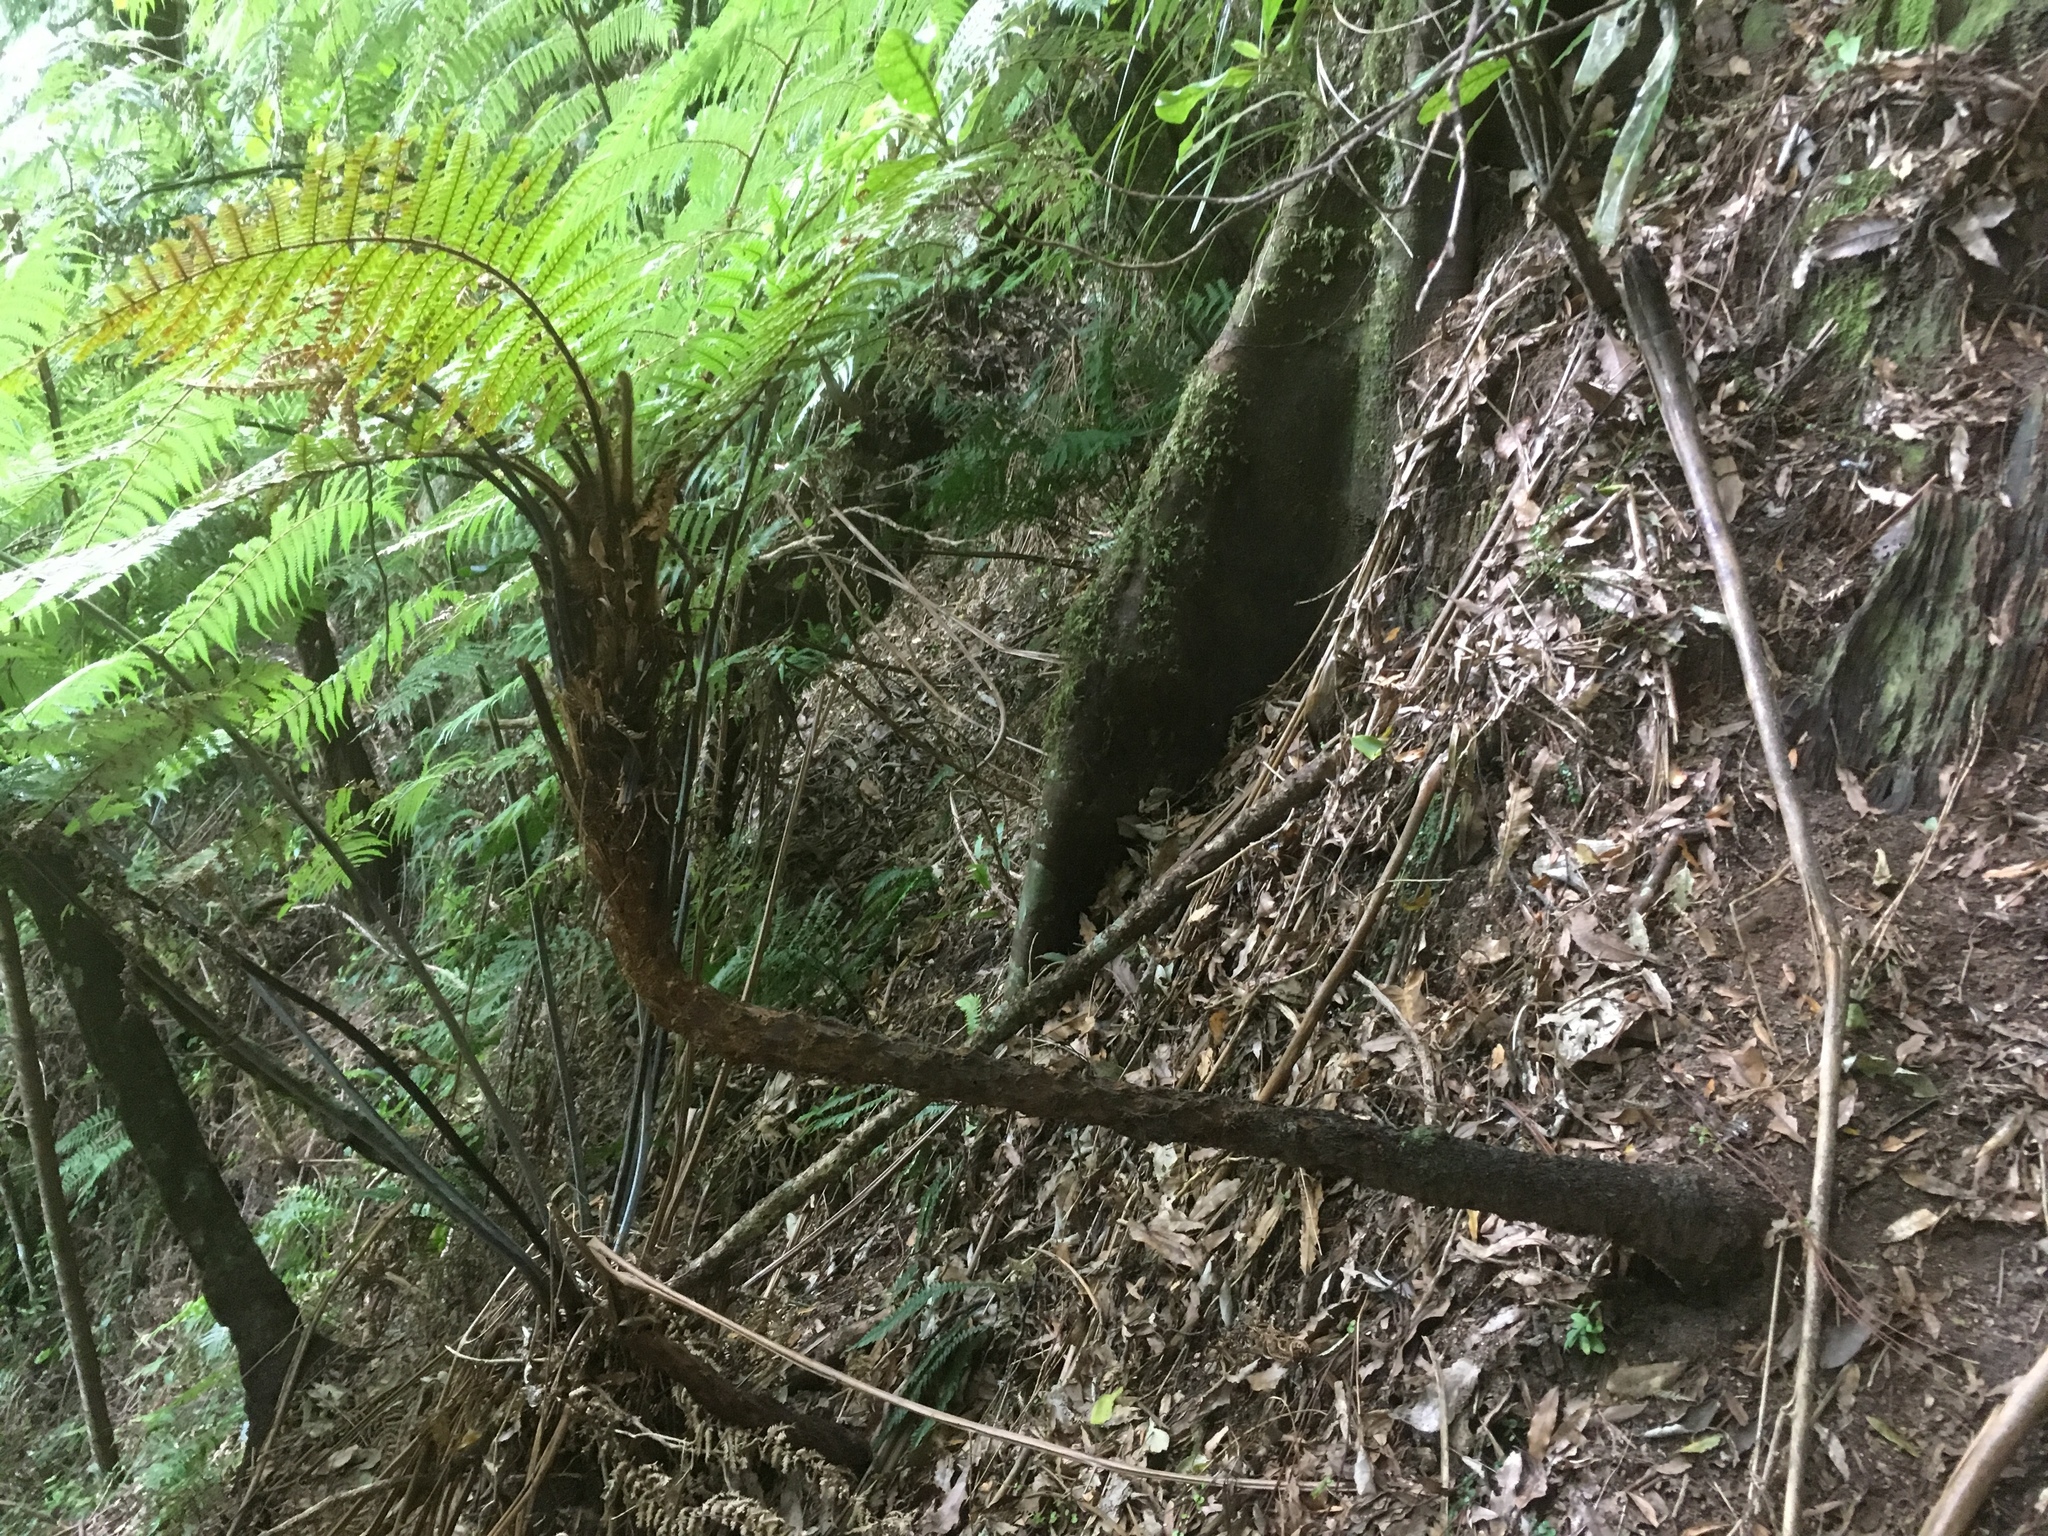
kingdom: Plantae
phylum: Tracheophyta
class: Polypodiopsida
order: Cyatheales
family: Dicksoniaceae
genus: Dicksonia
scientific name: Dicksonia squarrosa
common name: Hard treefern
